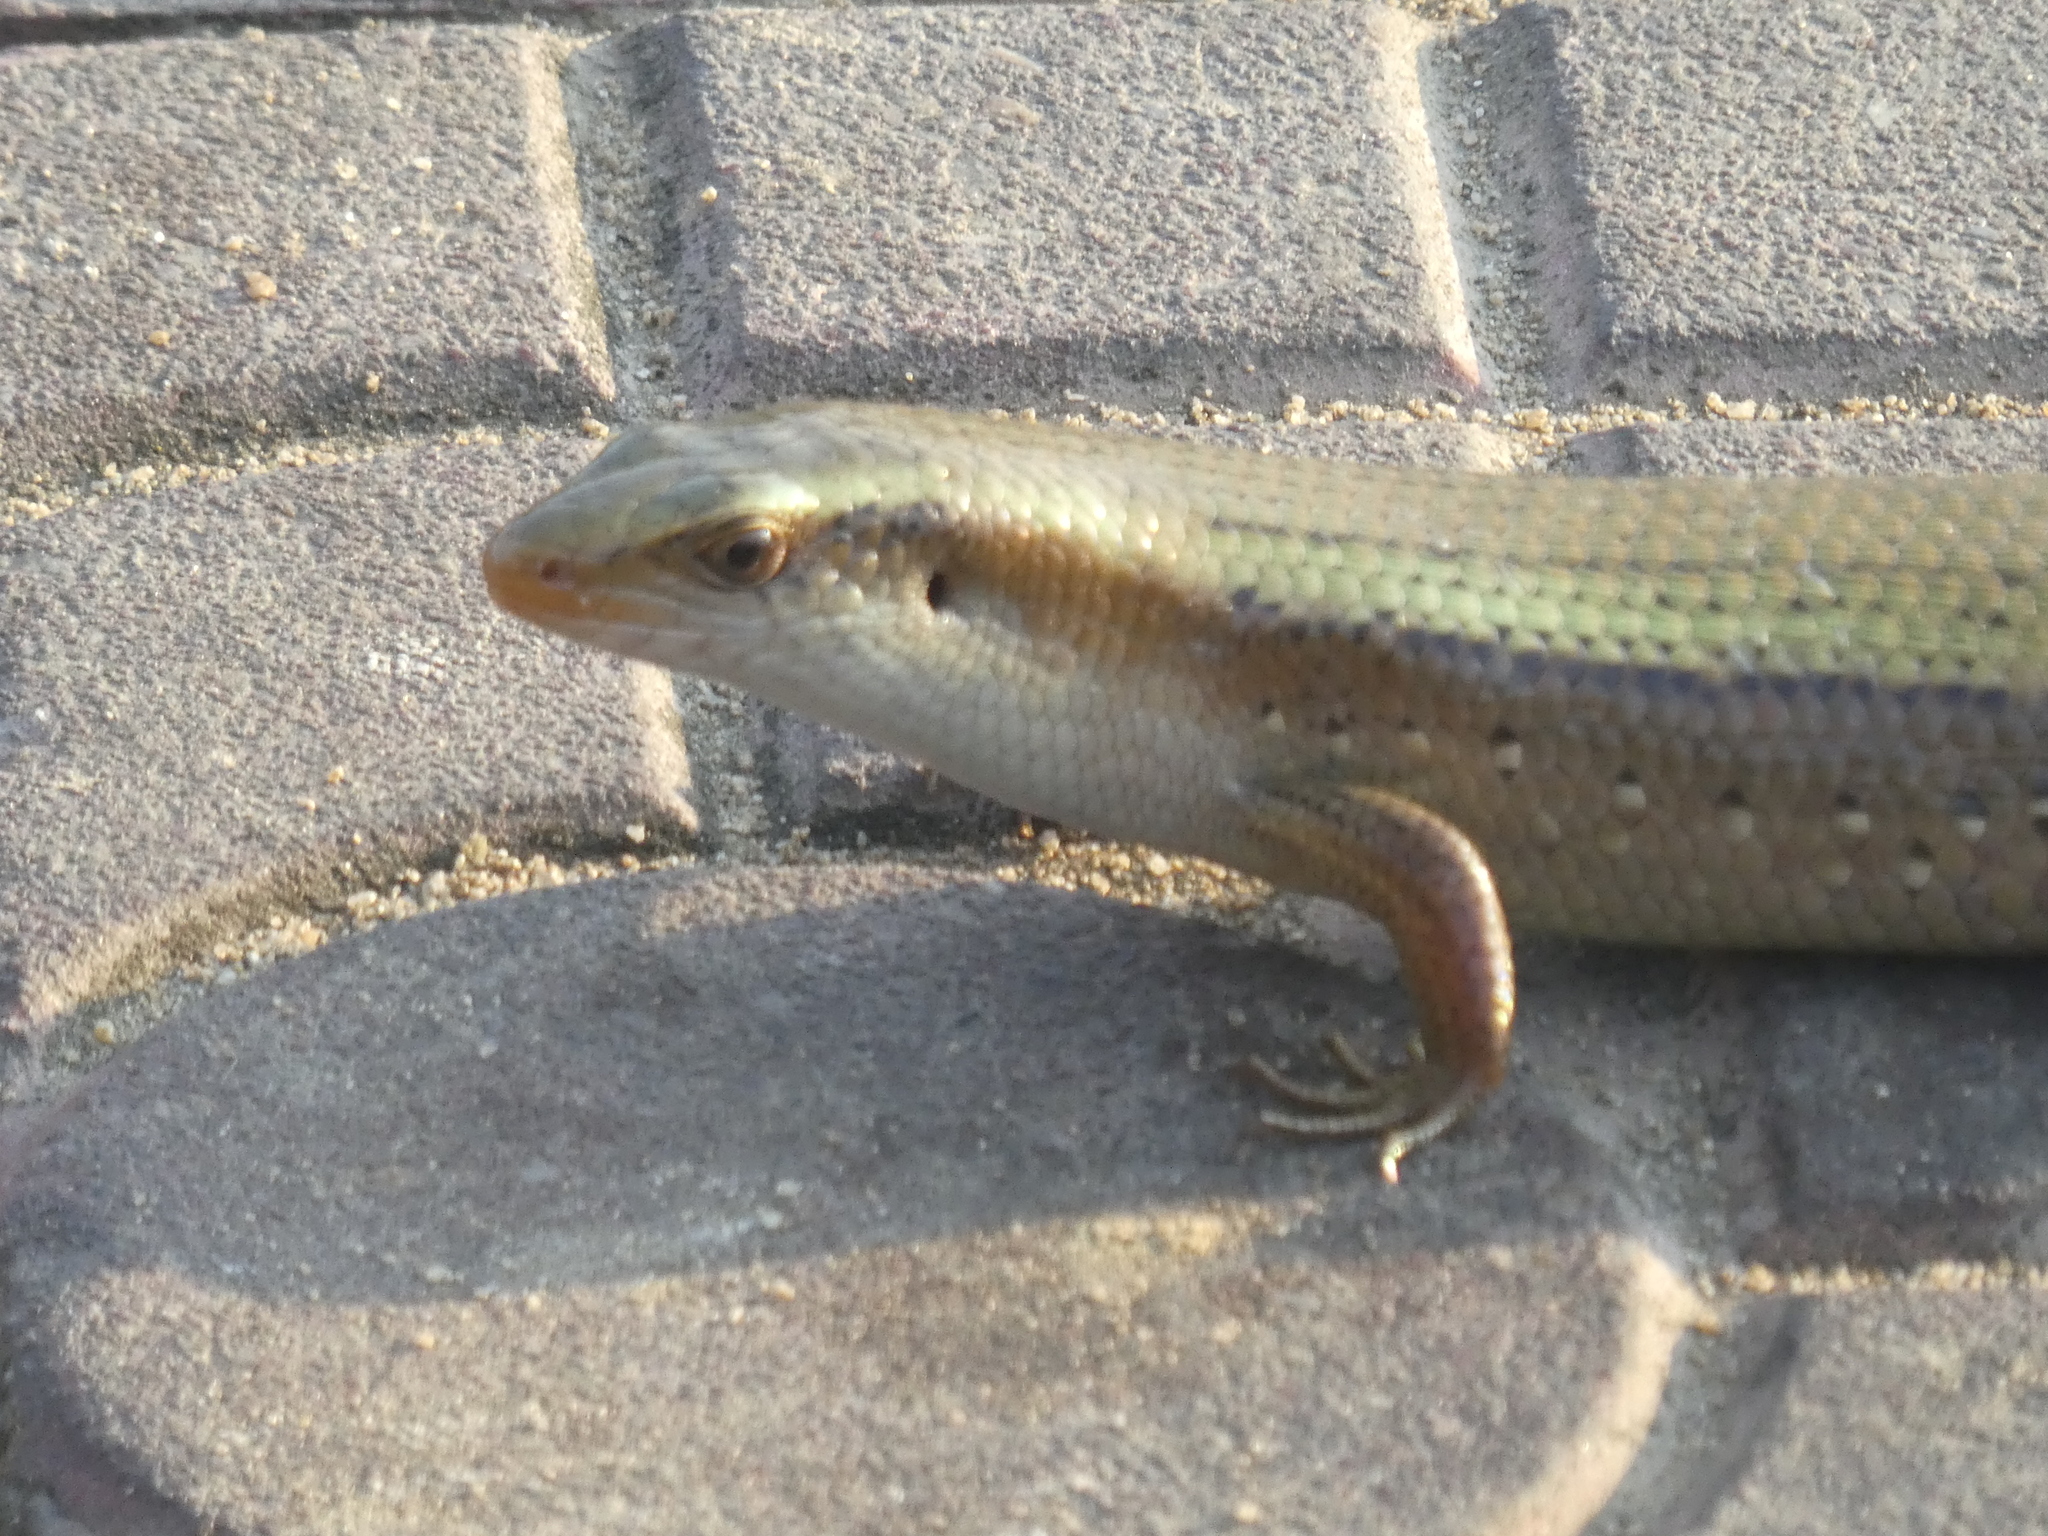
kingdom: Animalia
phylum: Chordata
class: Squamata
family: Scincidae
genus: Eutropis
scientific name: Eutropis multifasciata
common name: Common mabuya
